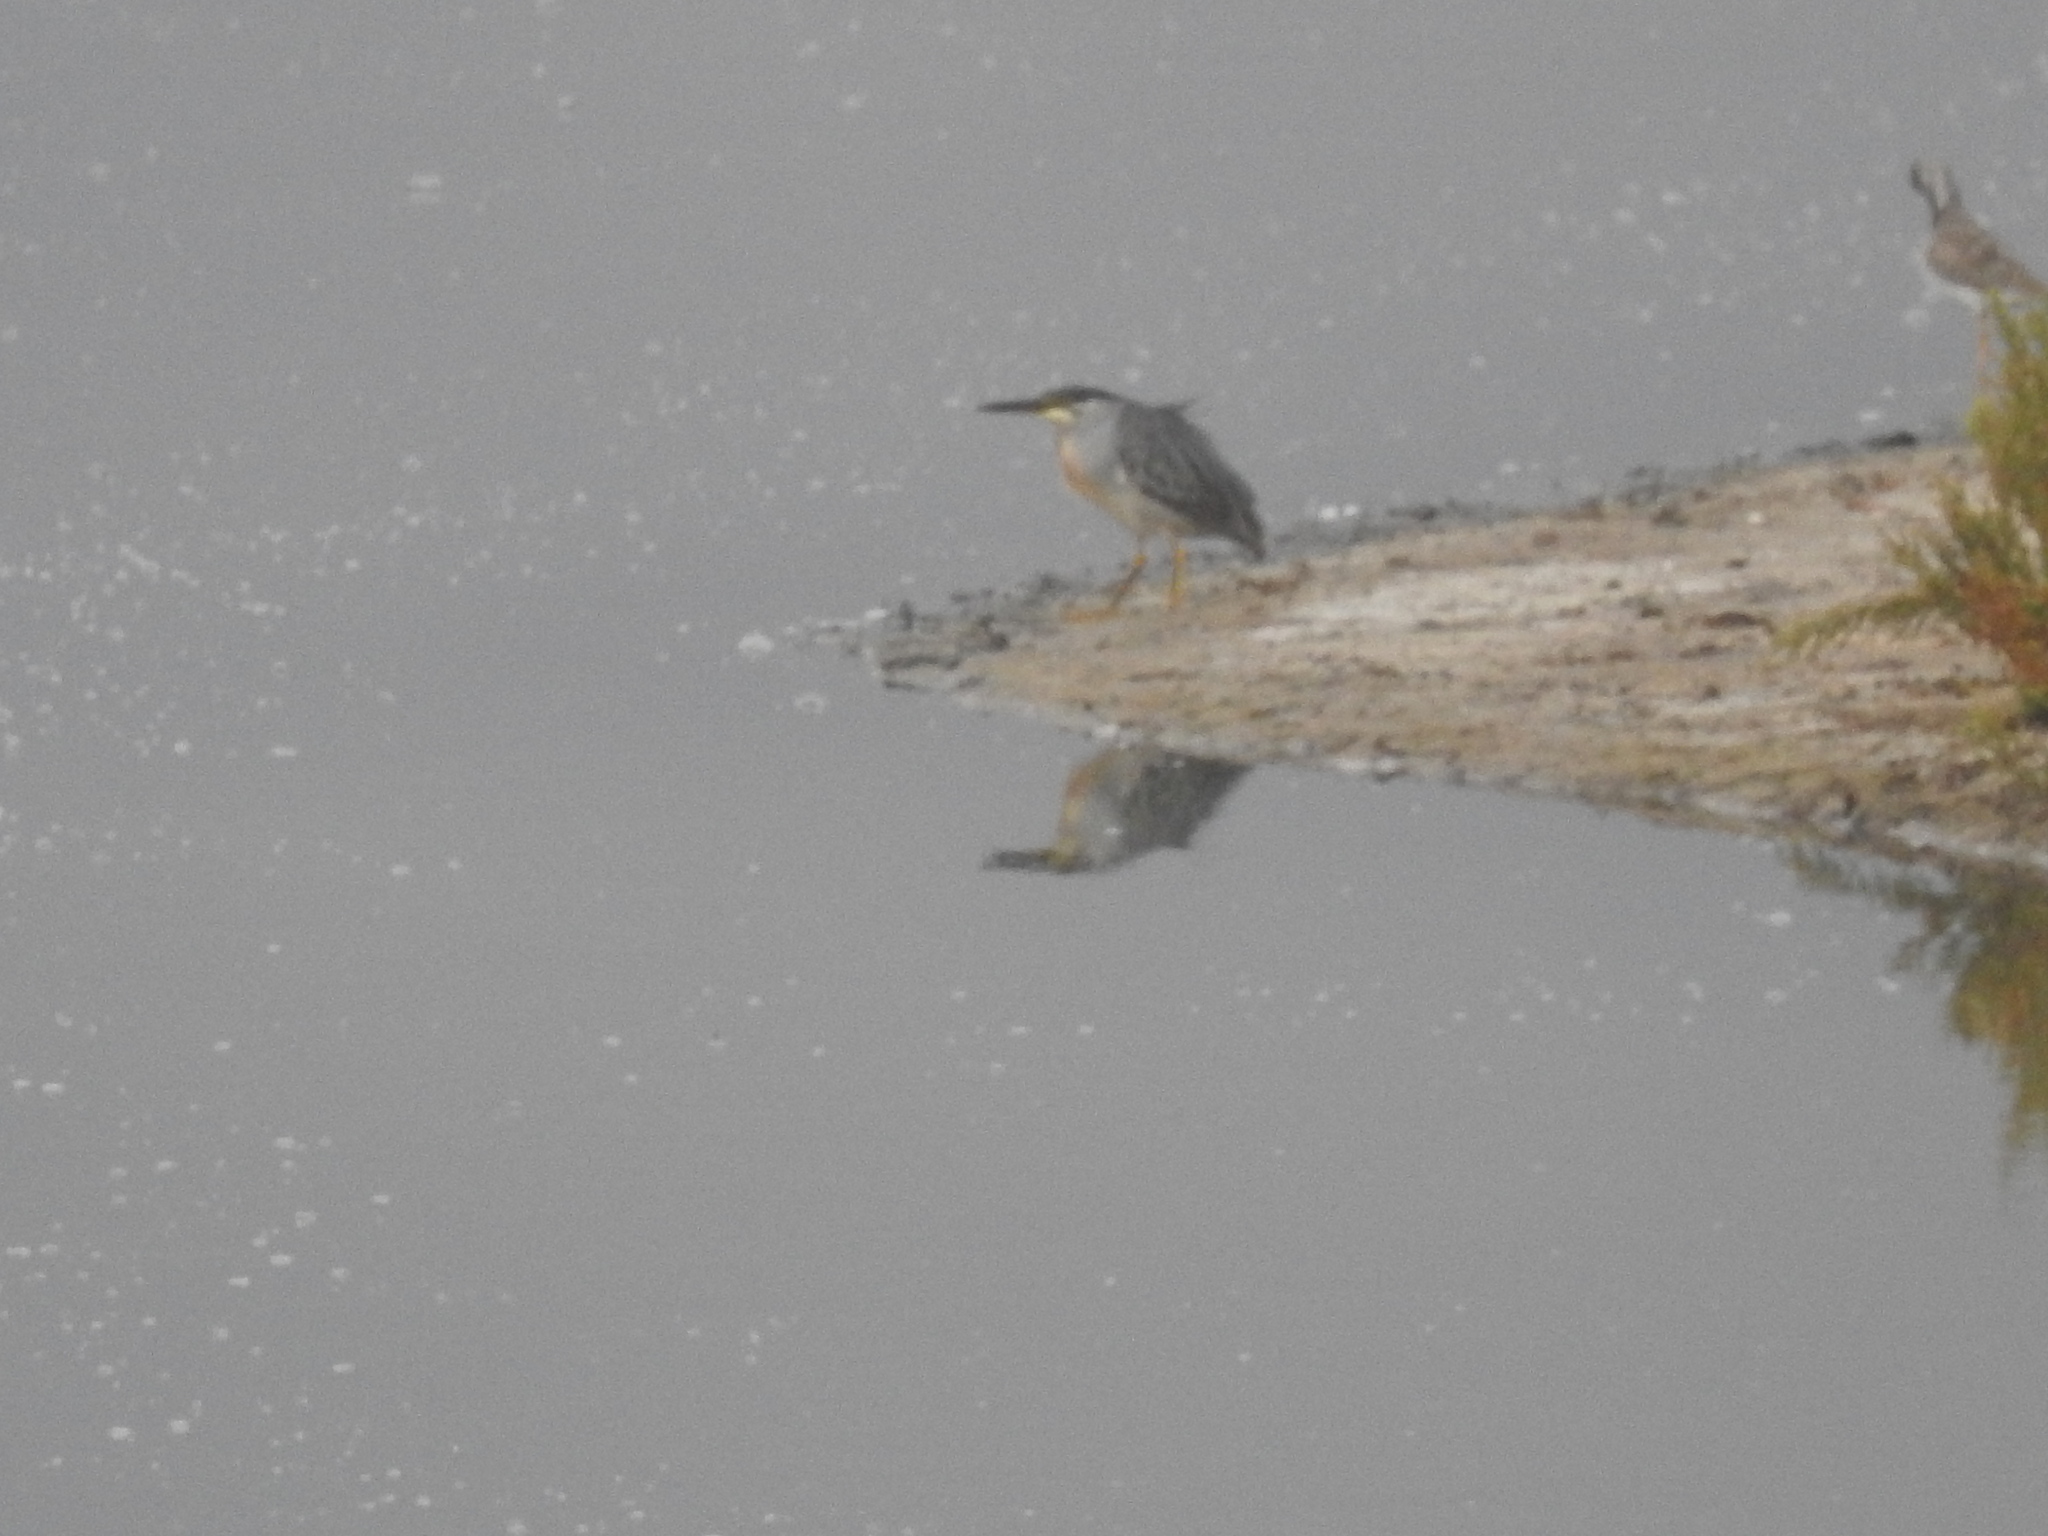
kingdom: Animalia
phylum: Chordata
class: Aves
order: Pelecaniformes
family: Ardeidae
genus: Butorides
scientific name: Butorides striata
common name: Striated heron
